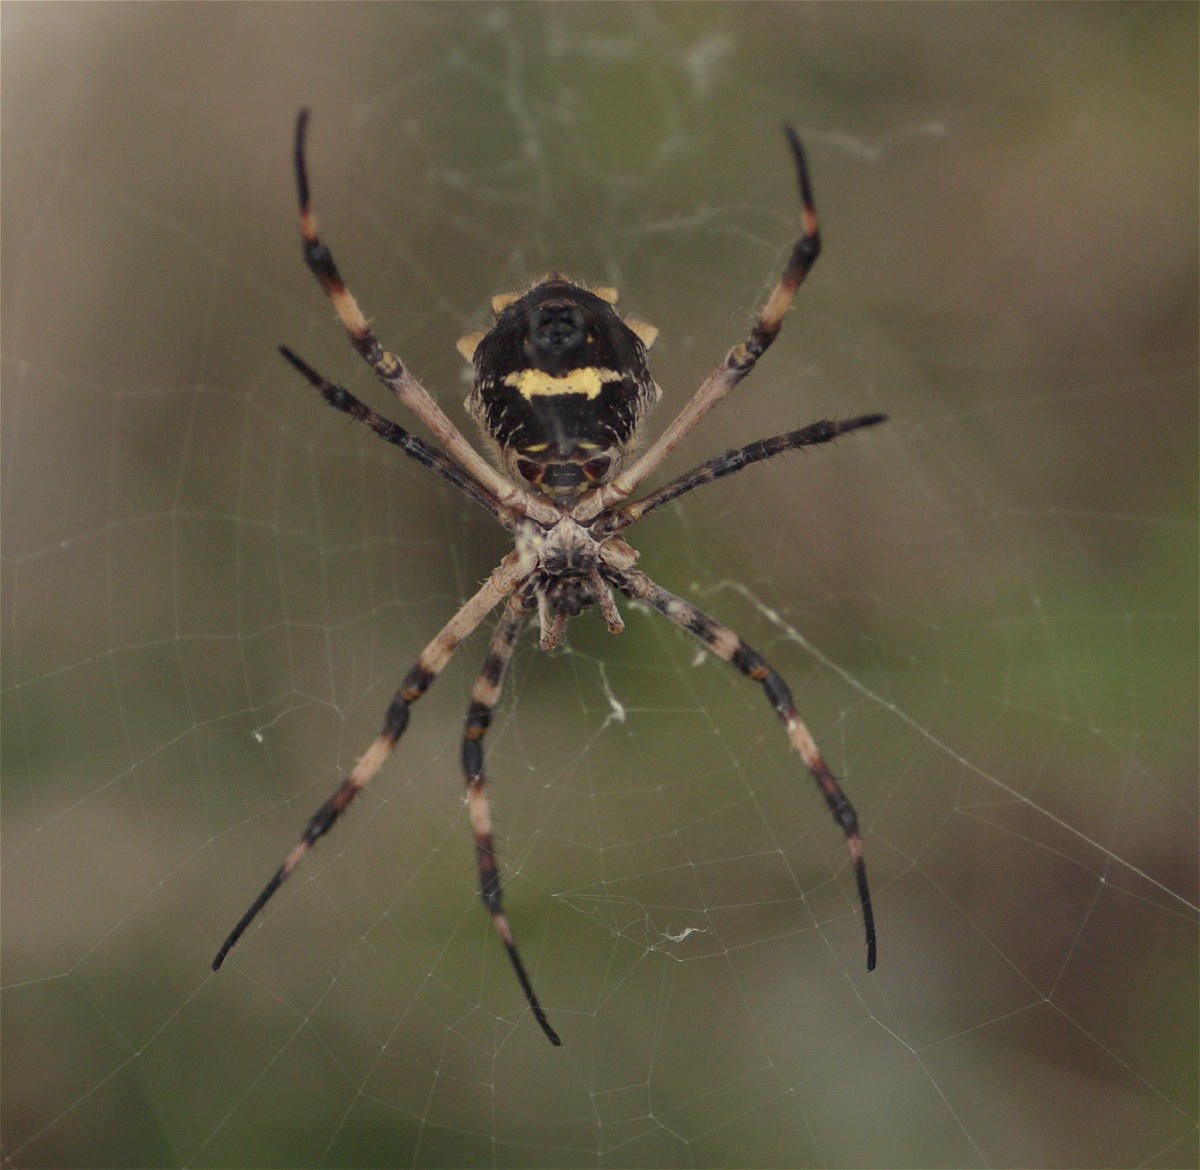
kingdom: Animalia
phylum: Arthropoda
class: Arachnida
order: Araneae
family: Araneidae
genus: Argiope
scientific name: Argiope argentata
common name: Orb weavers
